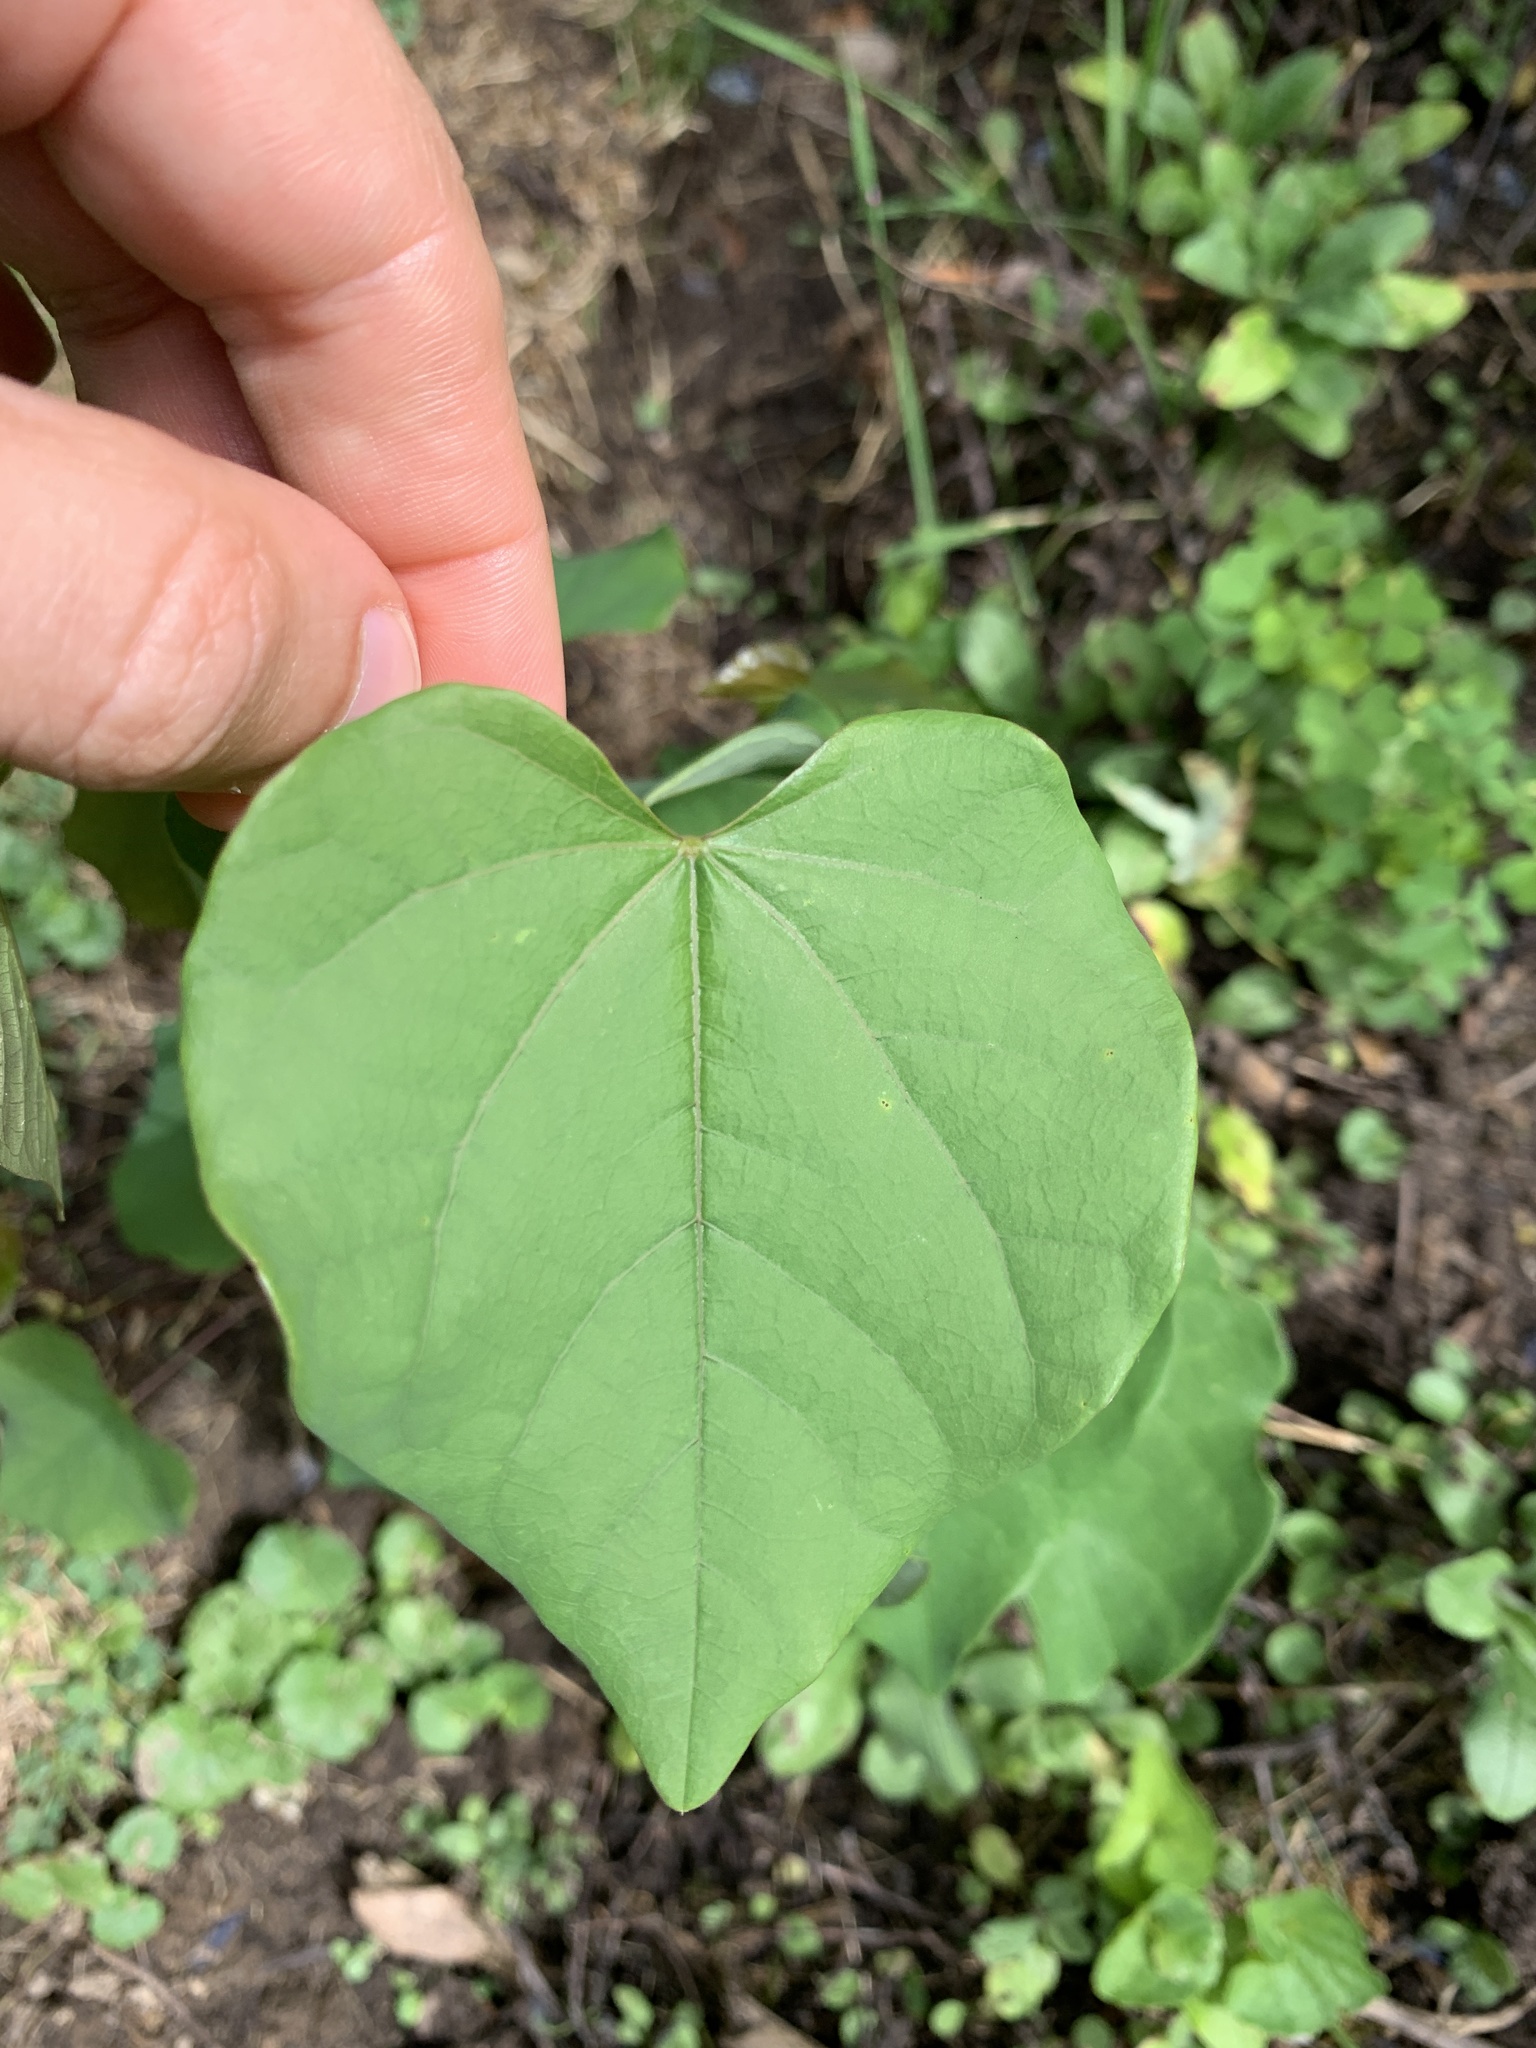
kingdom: Plantae
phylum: Tracheophyta
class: Magnoliopsida
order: Fabales
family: Fabaceae
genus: Cercis
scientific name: Cercis canadensis
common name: Eastern redbud
